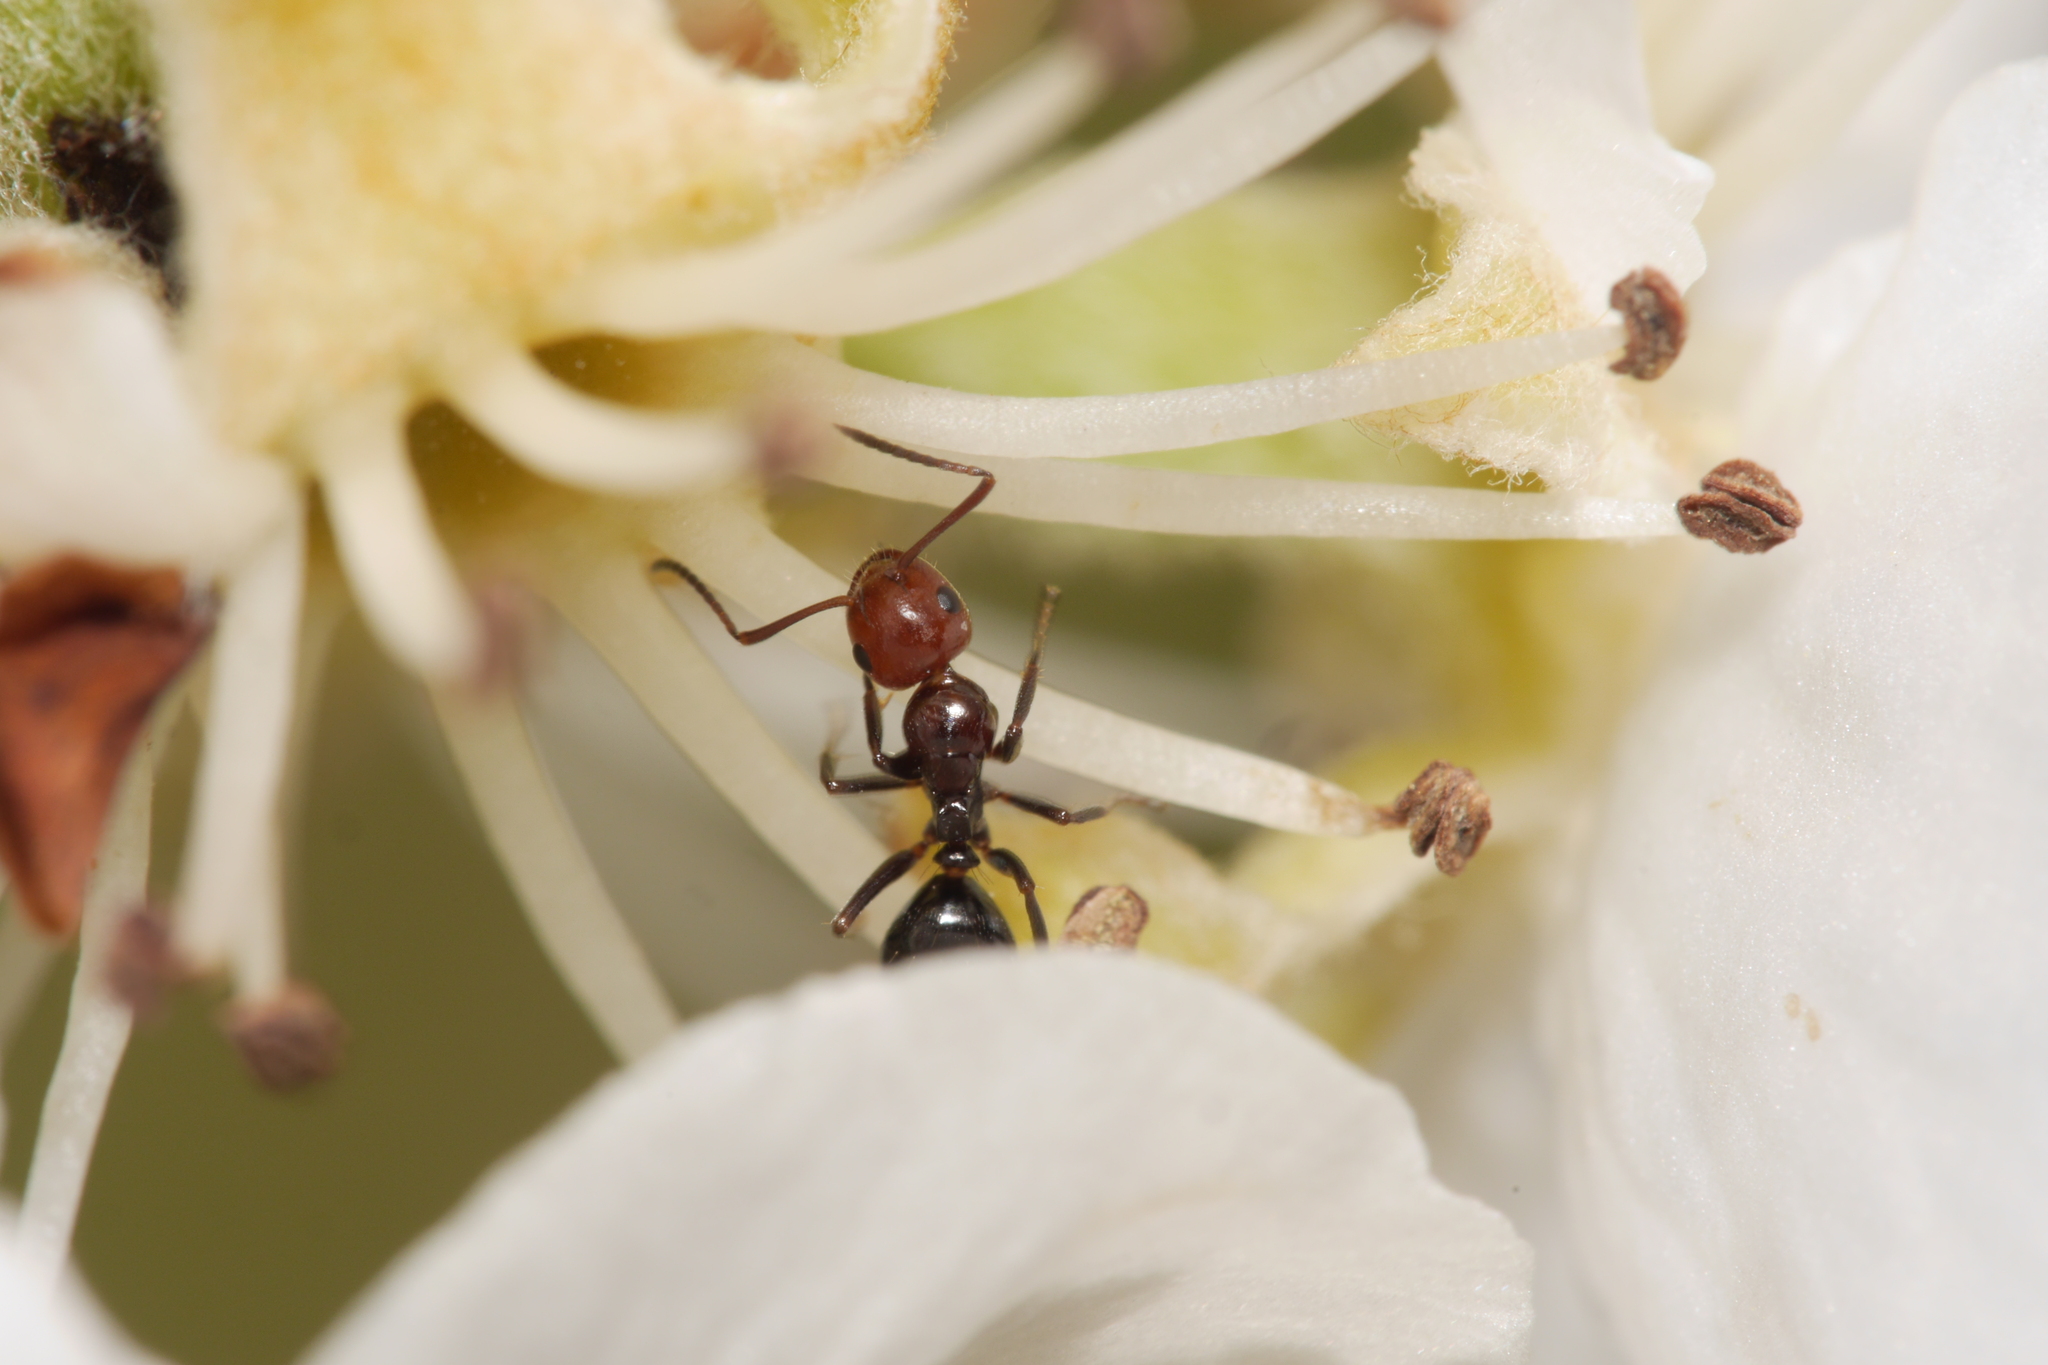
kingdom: Animalia
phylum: Arthropoda
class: Insecta
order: Hymenoptera
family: Formicidae
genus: Camponotus
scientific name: Camponotus lateralis
